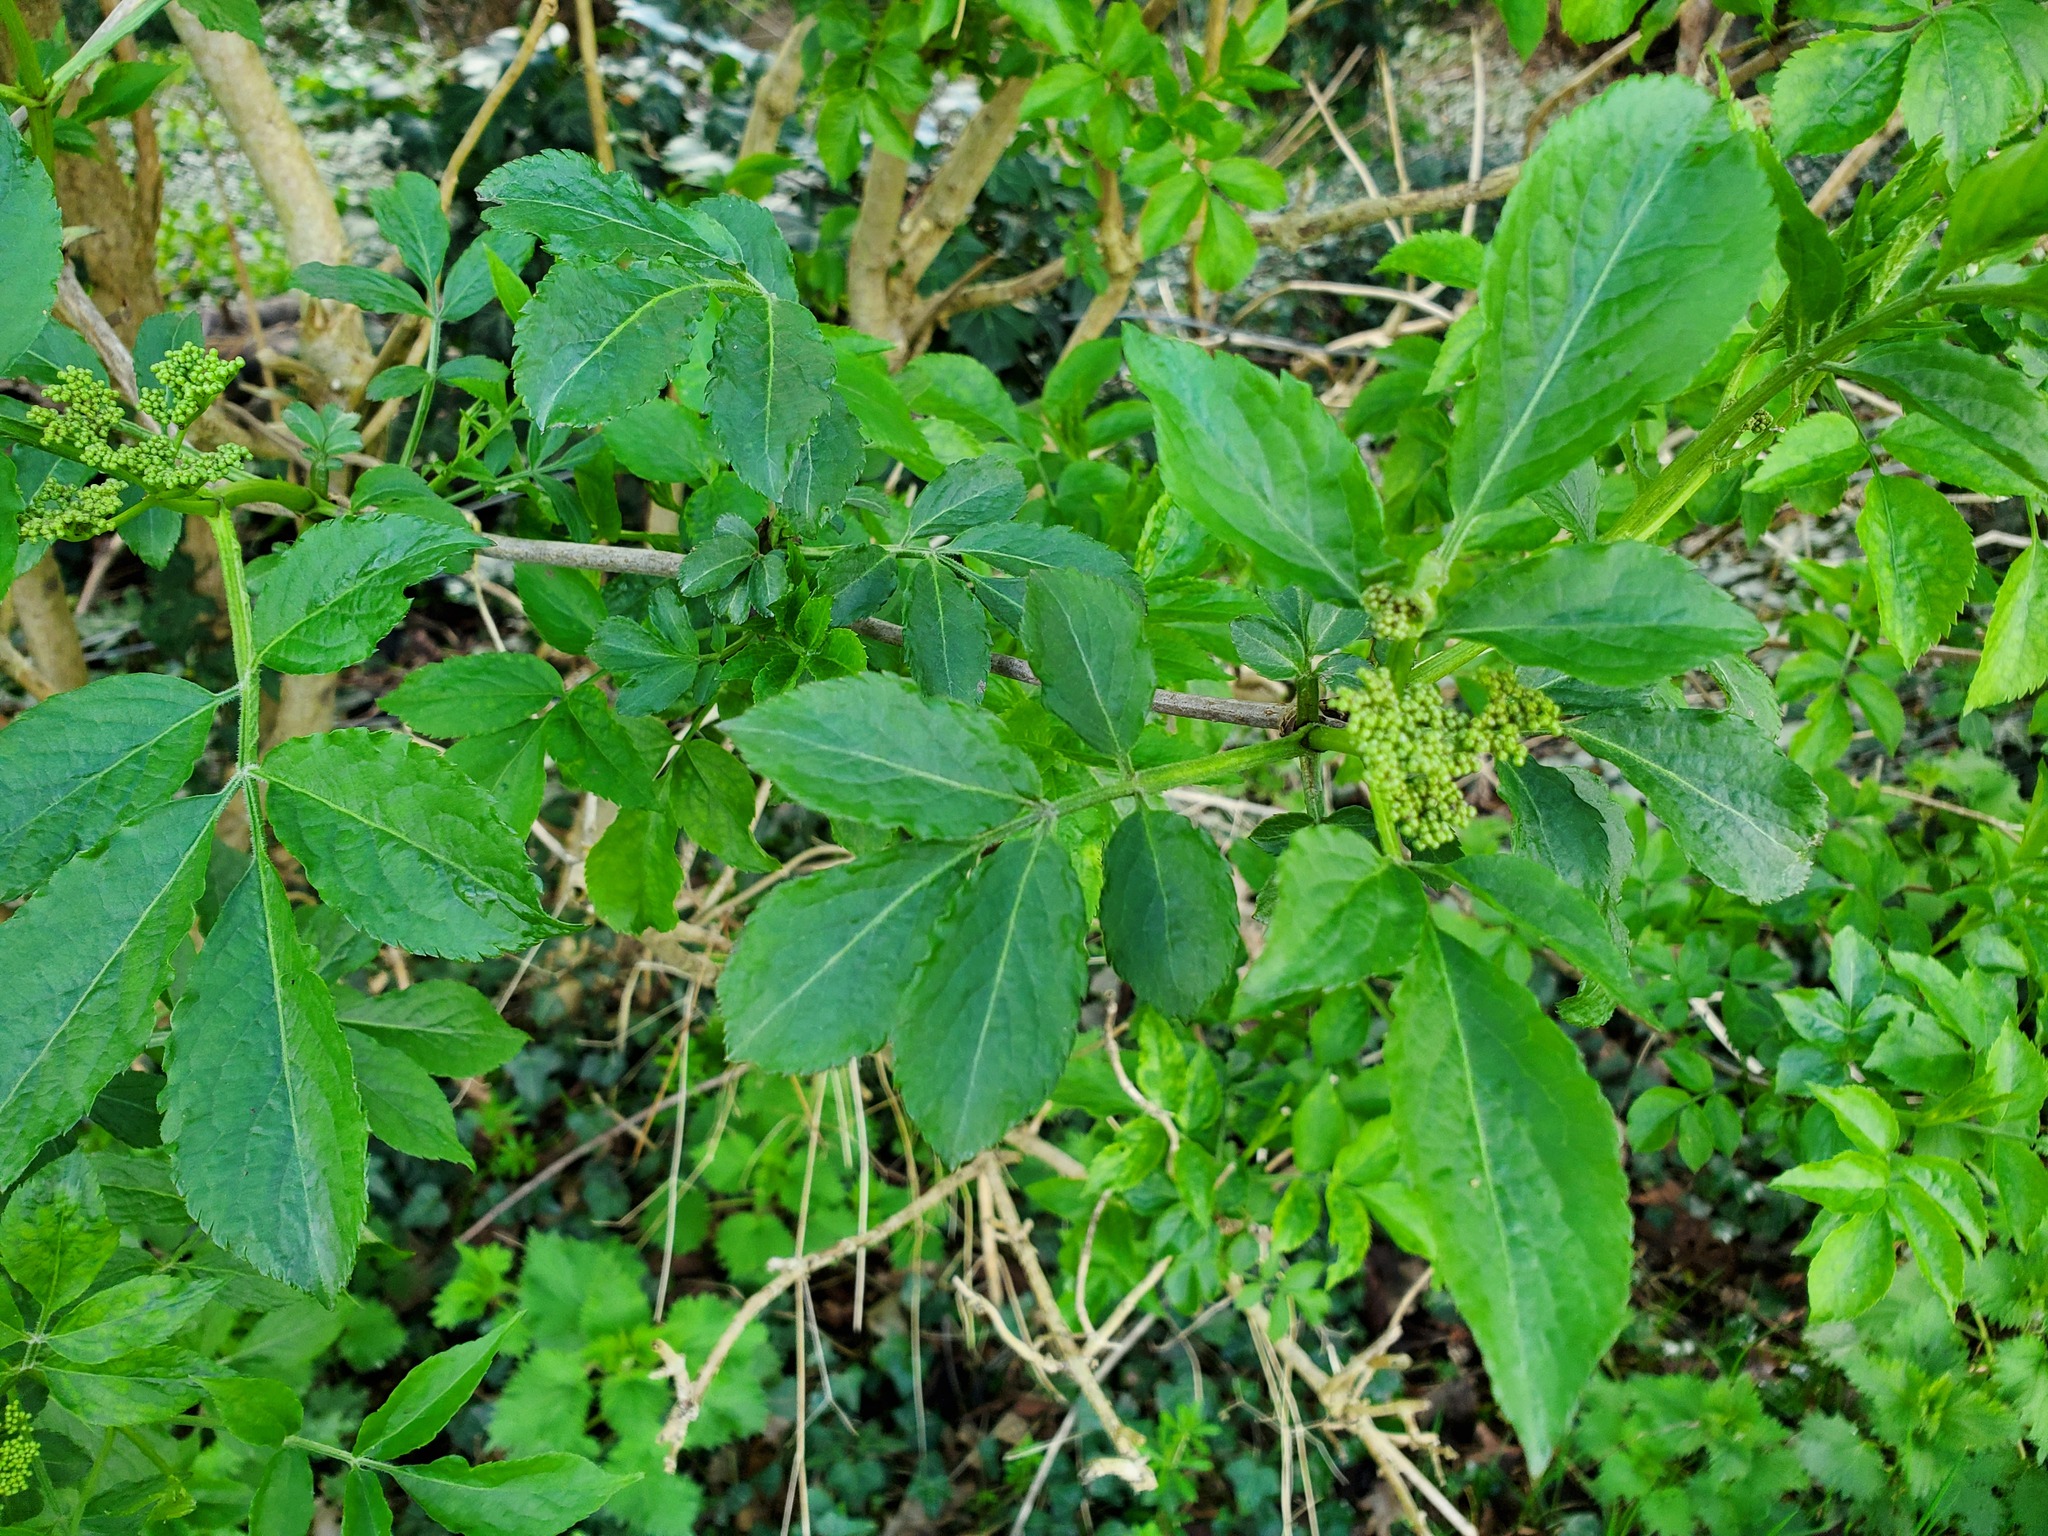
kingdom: Plantae
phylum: Tracheophyta
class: Magnoliopsida
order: Dipsacales
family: Viburnaceae
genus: Sambucus
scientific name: Sambucus nigra
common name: Elder
